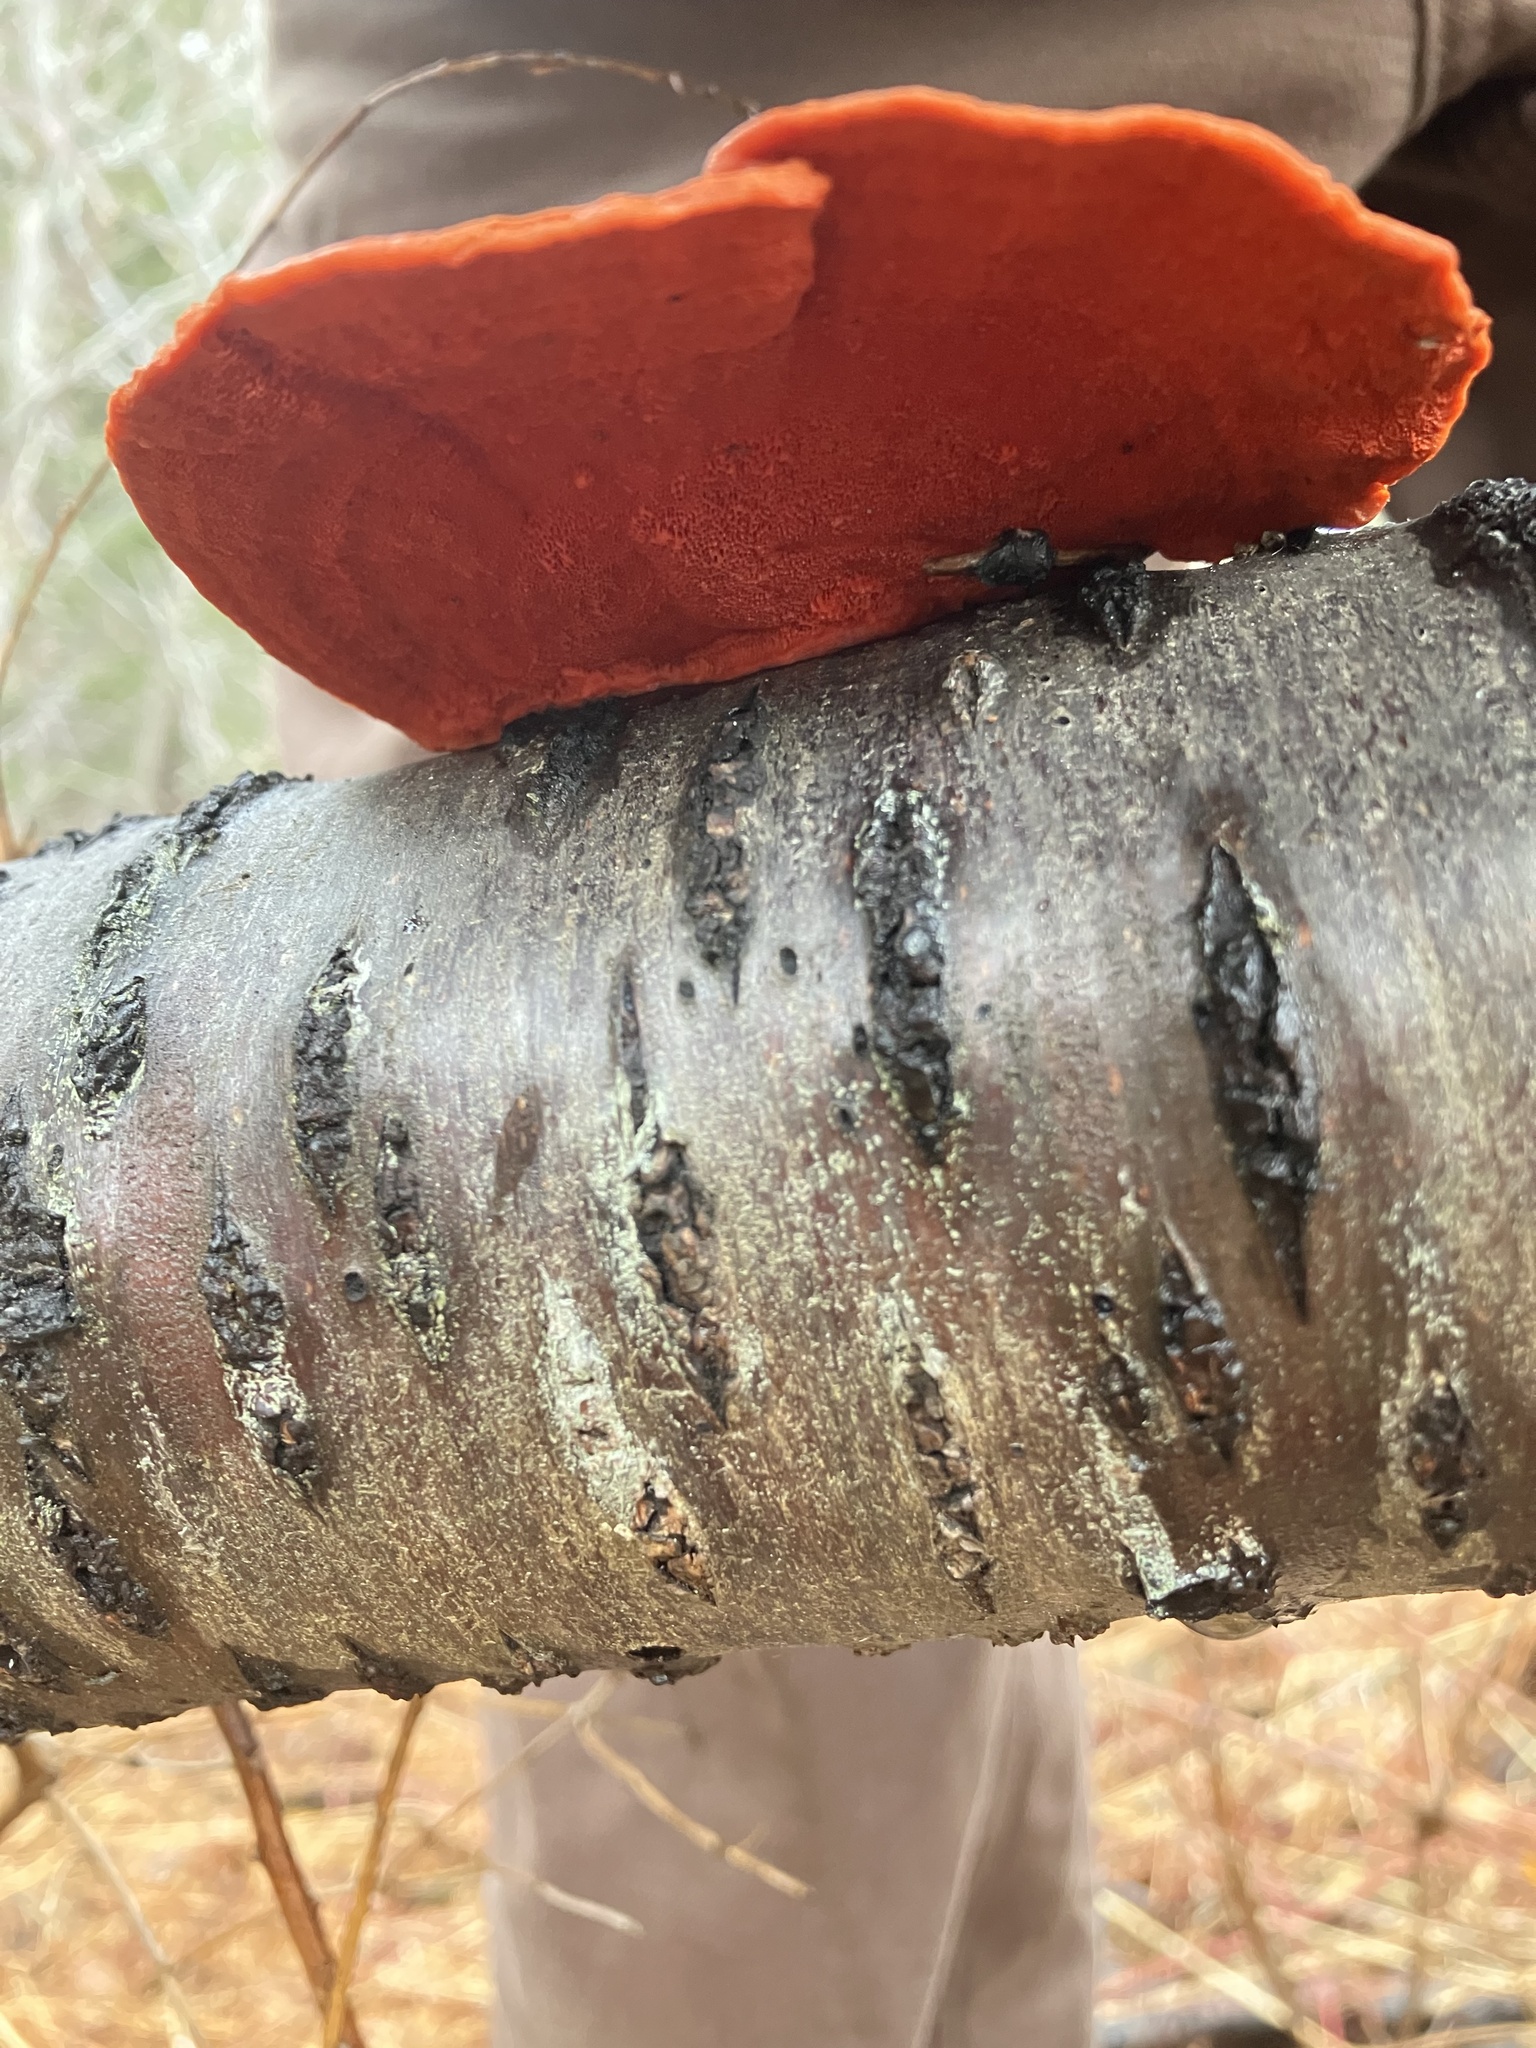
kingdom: Fungi
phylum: Basidiomycota
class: Agaricomycetes
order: Polyporales
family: Polyporaceae
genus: Trametes
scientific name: Trametes cinnabarina
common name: Northern cinnabar polypore
